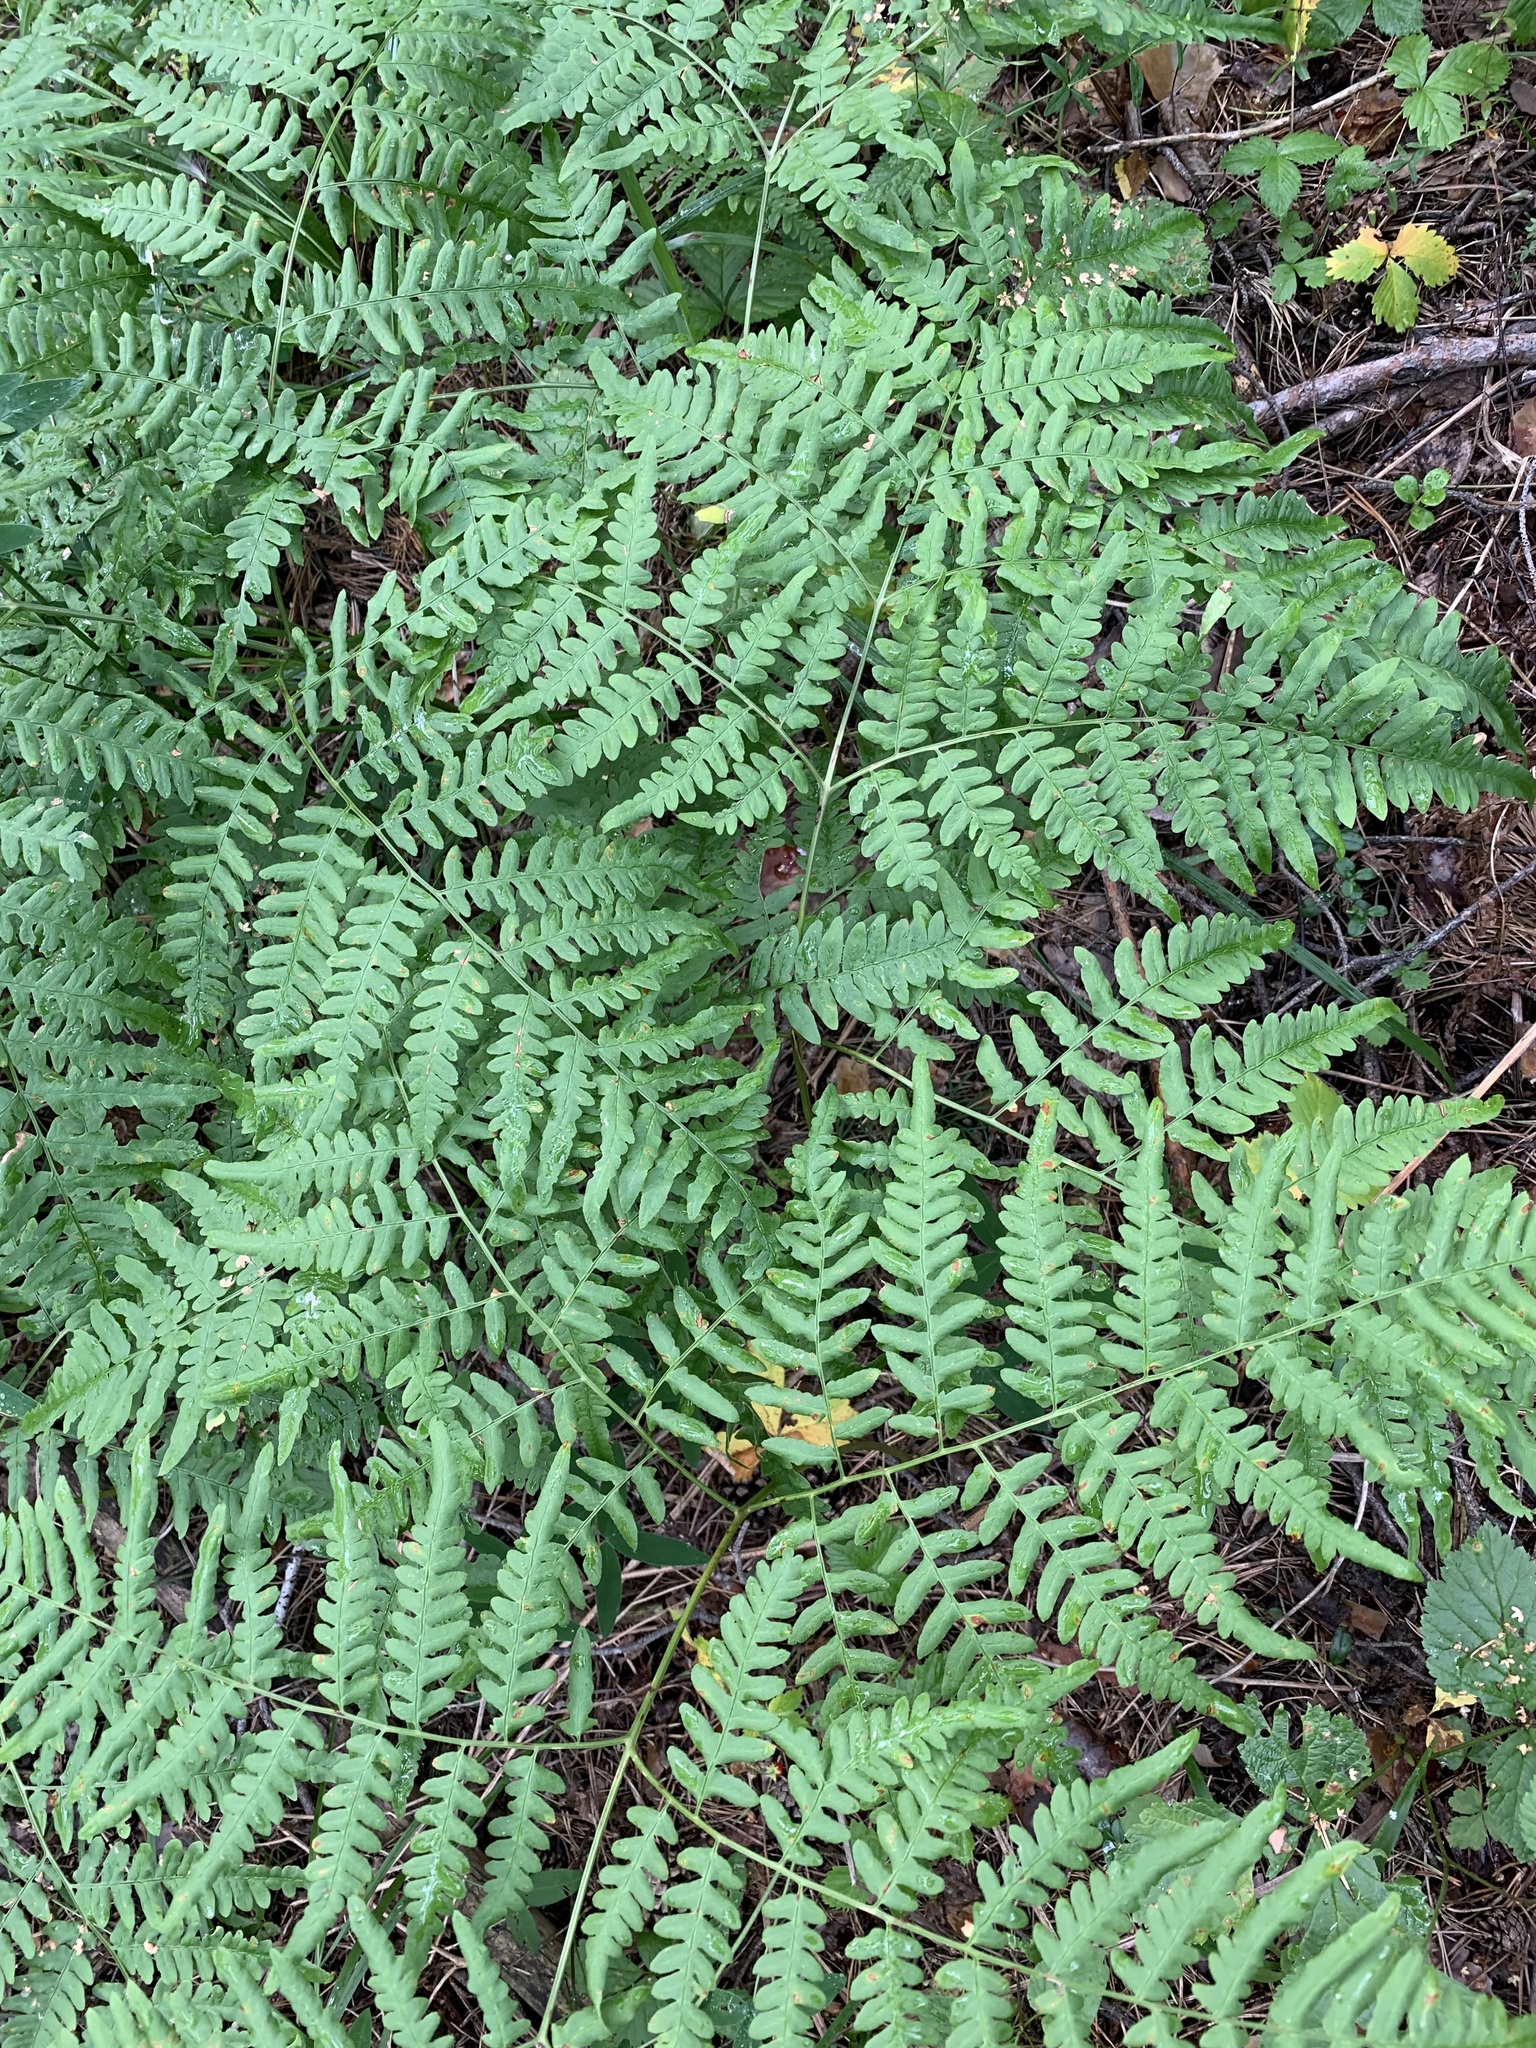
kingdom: Plantae
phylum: Tracheophyta
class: Polypodiopsida
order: Polypodiales
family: Dennstaedtiaceae
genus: Pteridium
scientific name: Pteridium aquilinum
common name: Bracken
